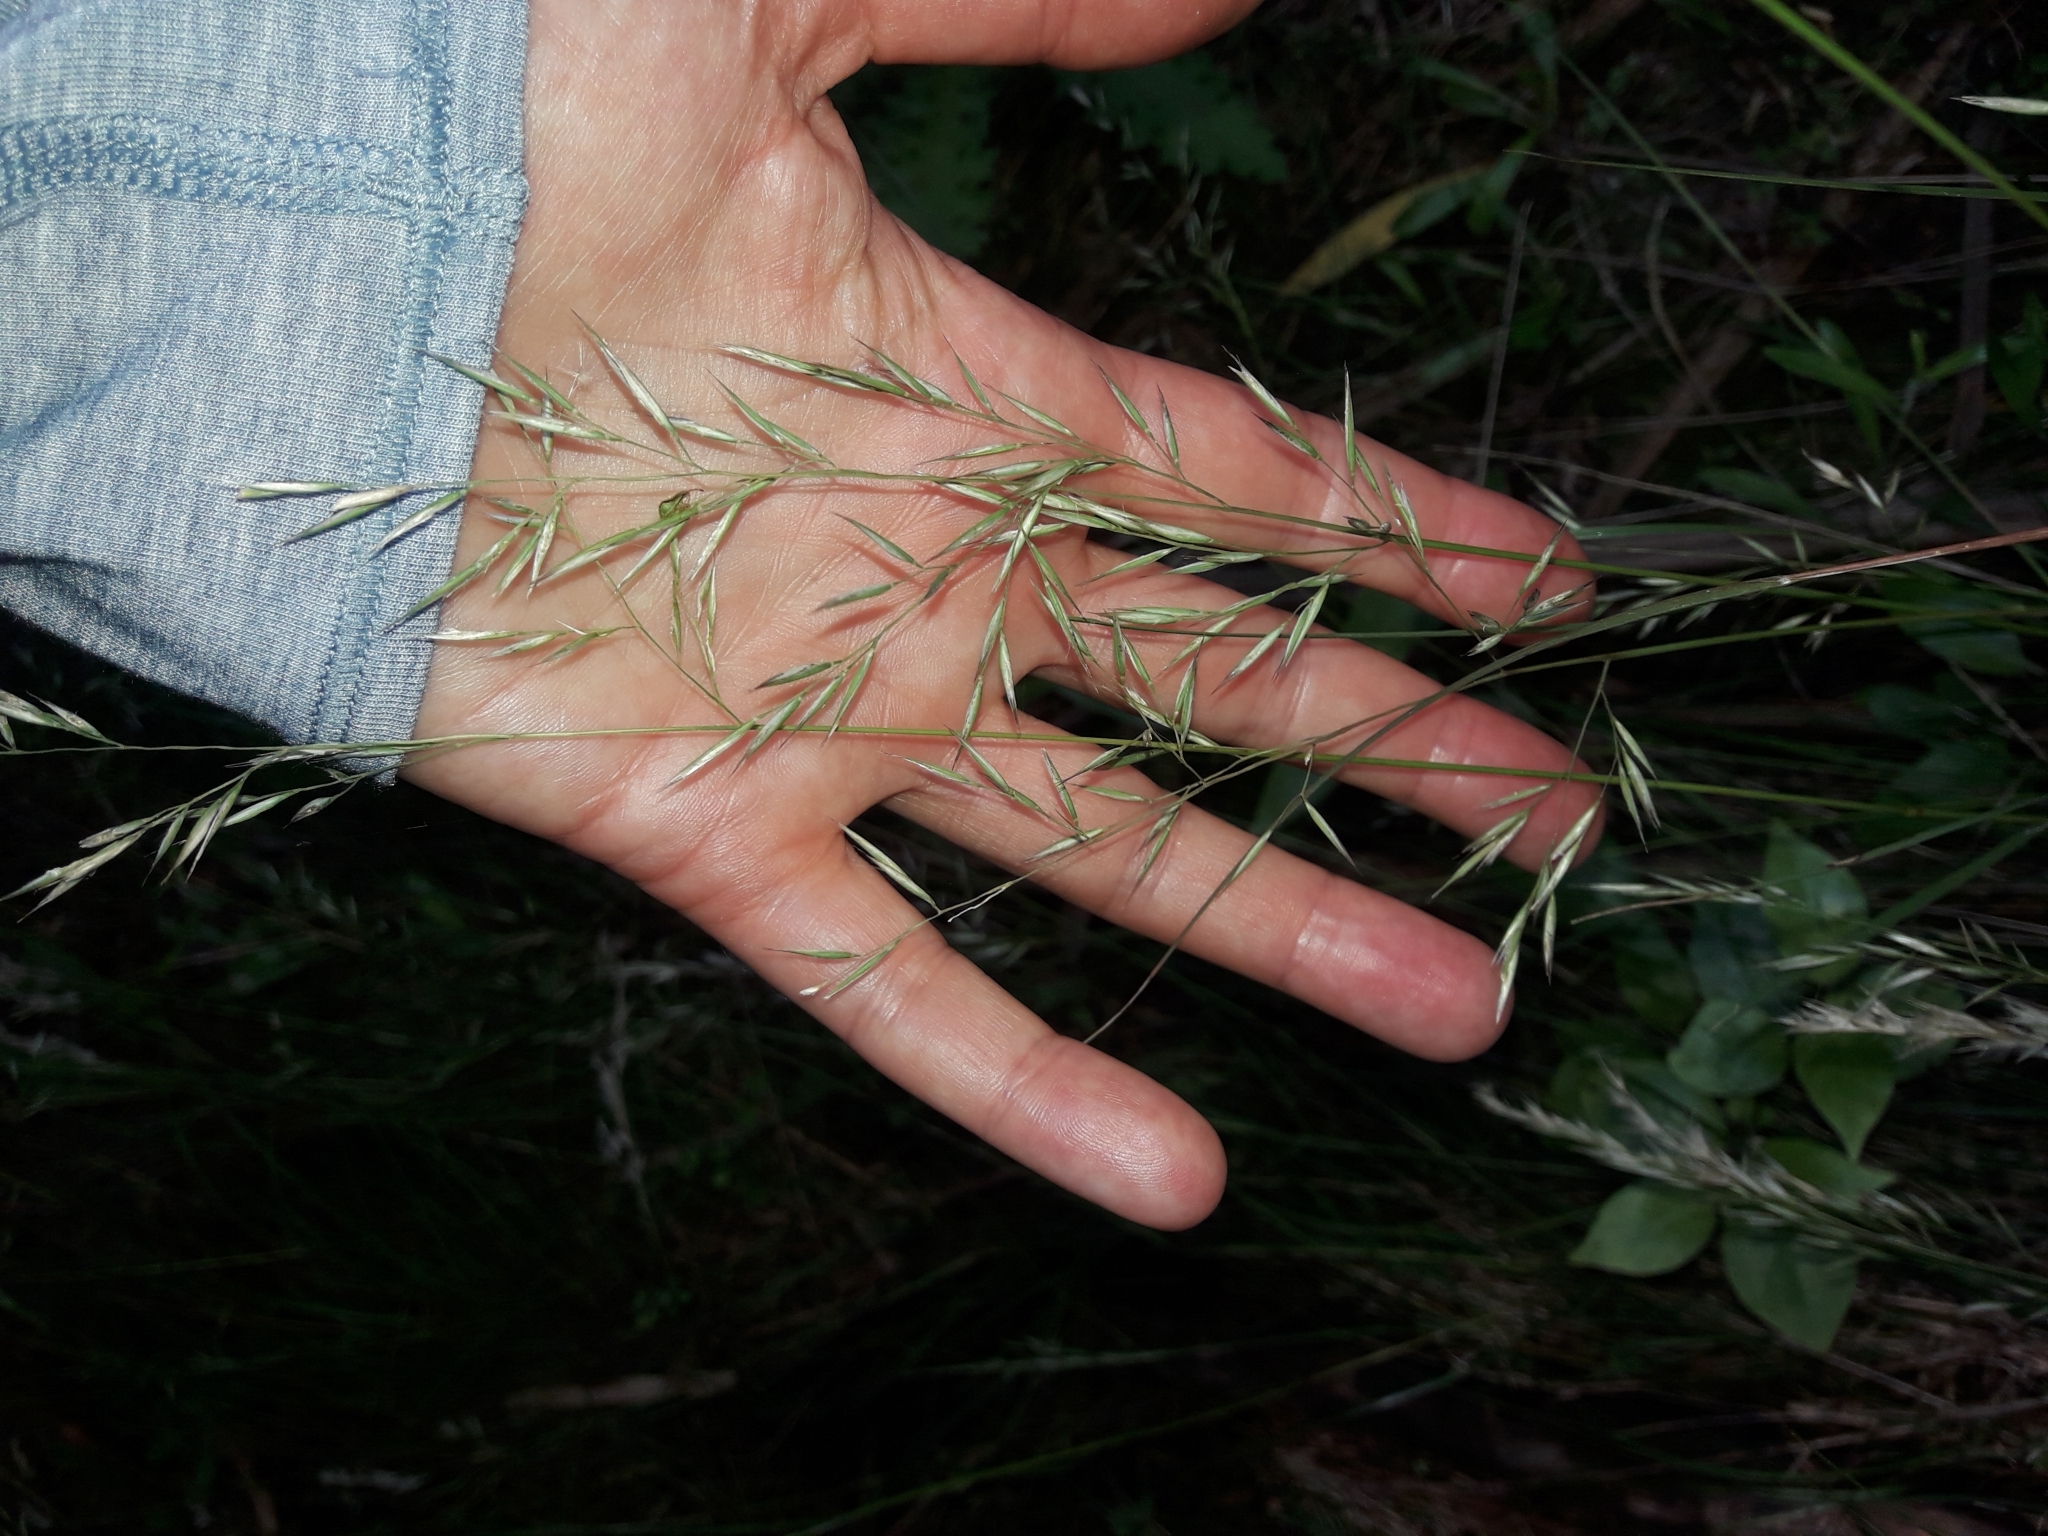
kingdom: Plantae
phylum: Tracheophyta
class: Liliopsida
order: Poales
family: Poaceae
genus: Rytidosperma
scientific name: Rytidosperma gracile
